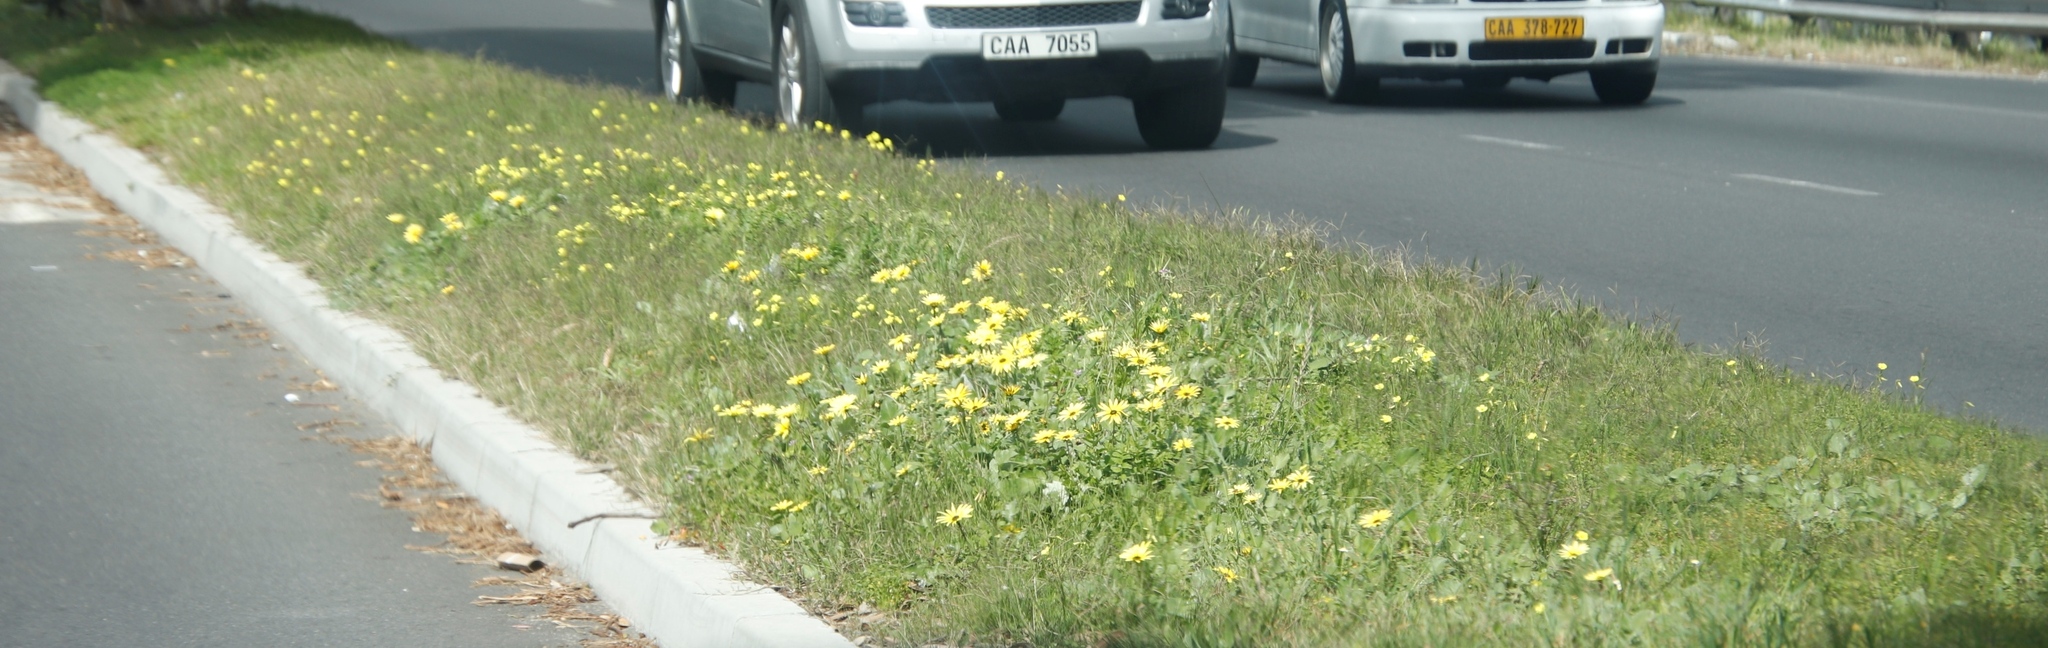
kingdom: Plantae
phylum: Tracheophyta
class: Magnoliopsida
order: Asterales
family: Asteraceae
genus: Arctotheca
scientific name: Arctotheca calendula
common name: Capeweed
